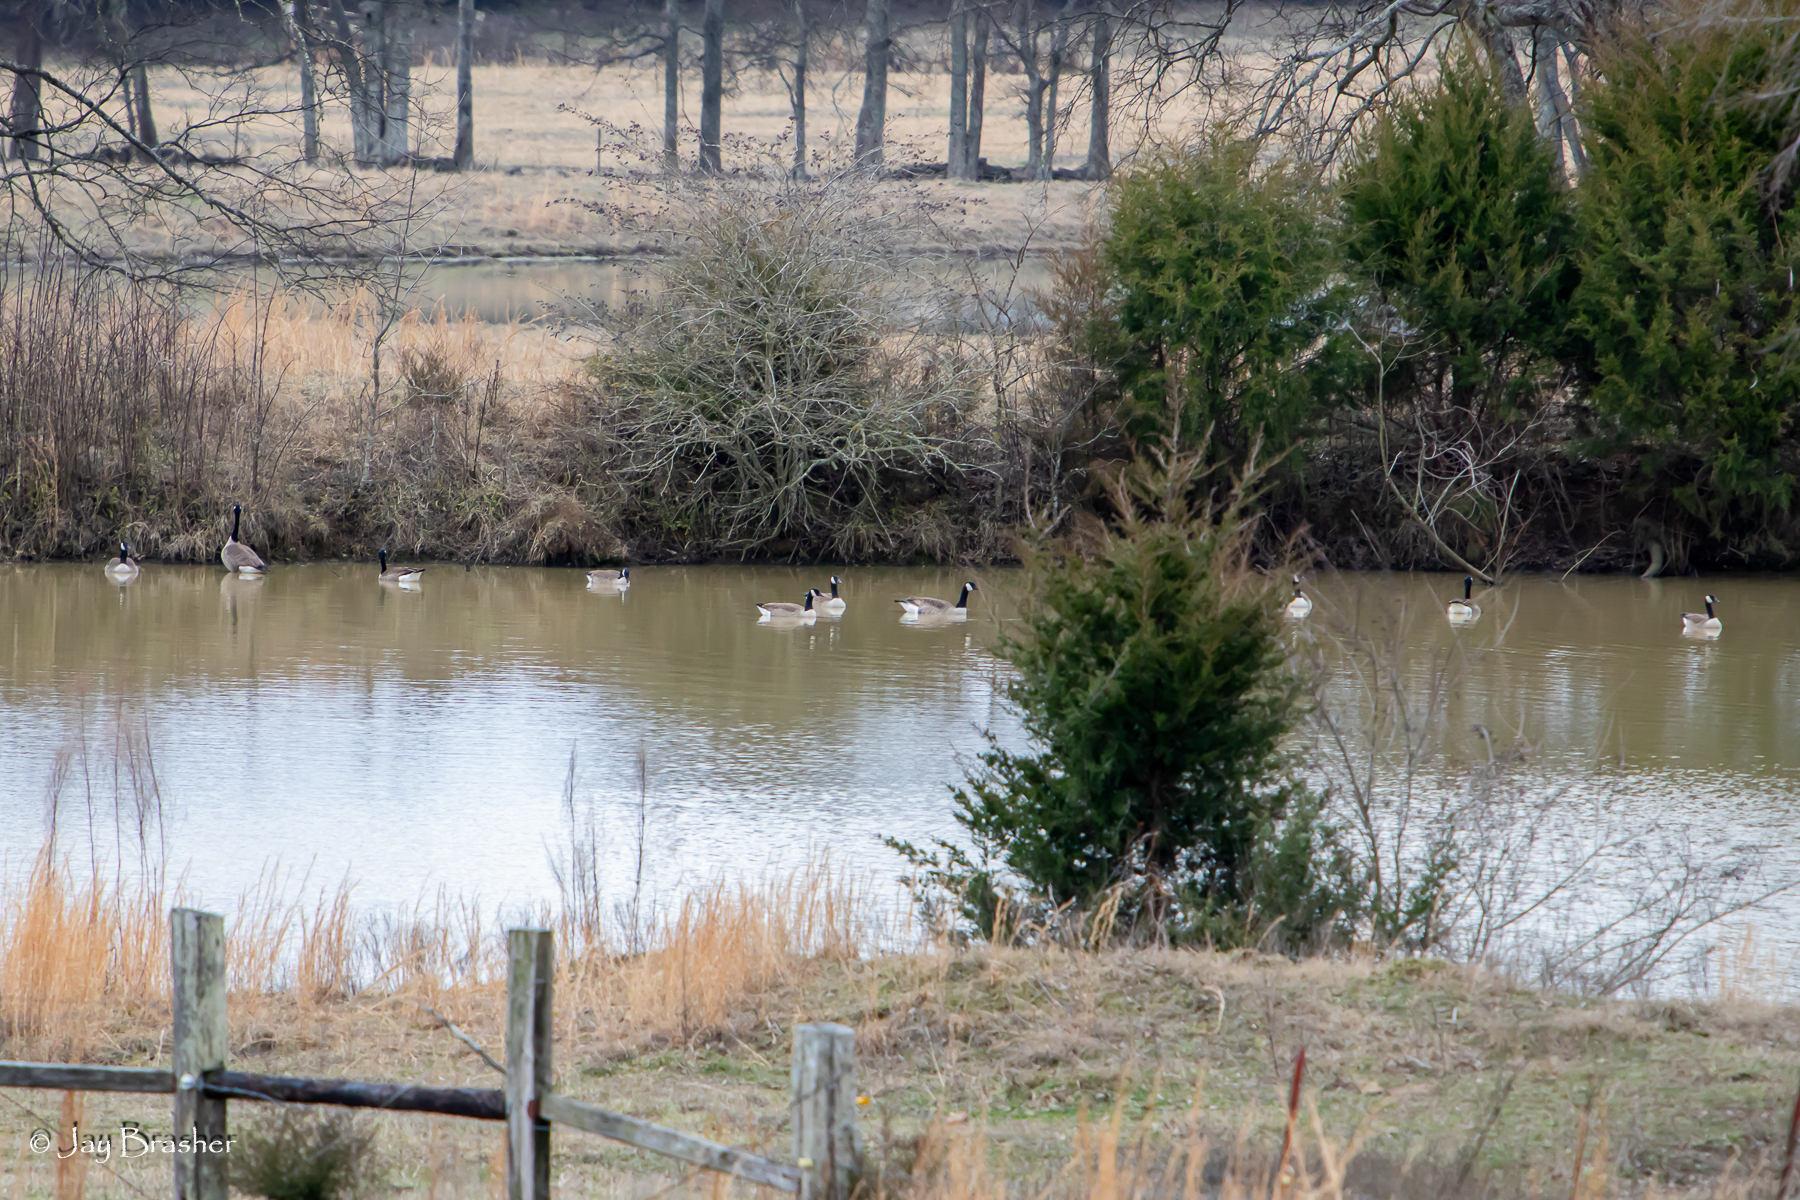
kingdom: Animalia
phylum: Chordata
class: Aves
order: Anseriformes
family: Anatidae
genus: Branta
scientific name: Branta canadensis
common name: Canada goose
